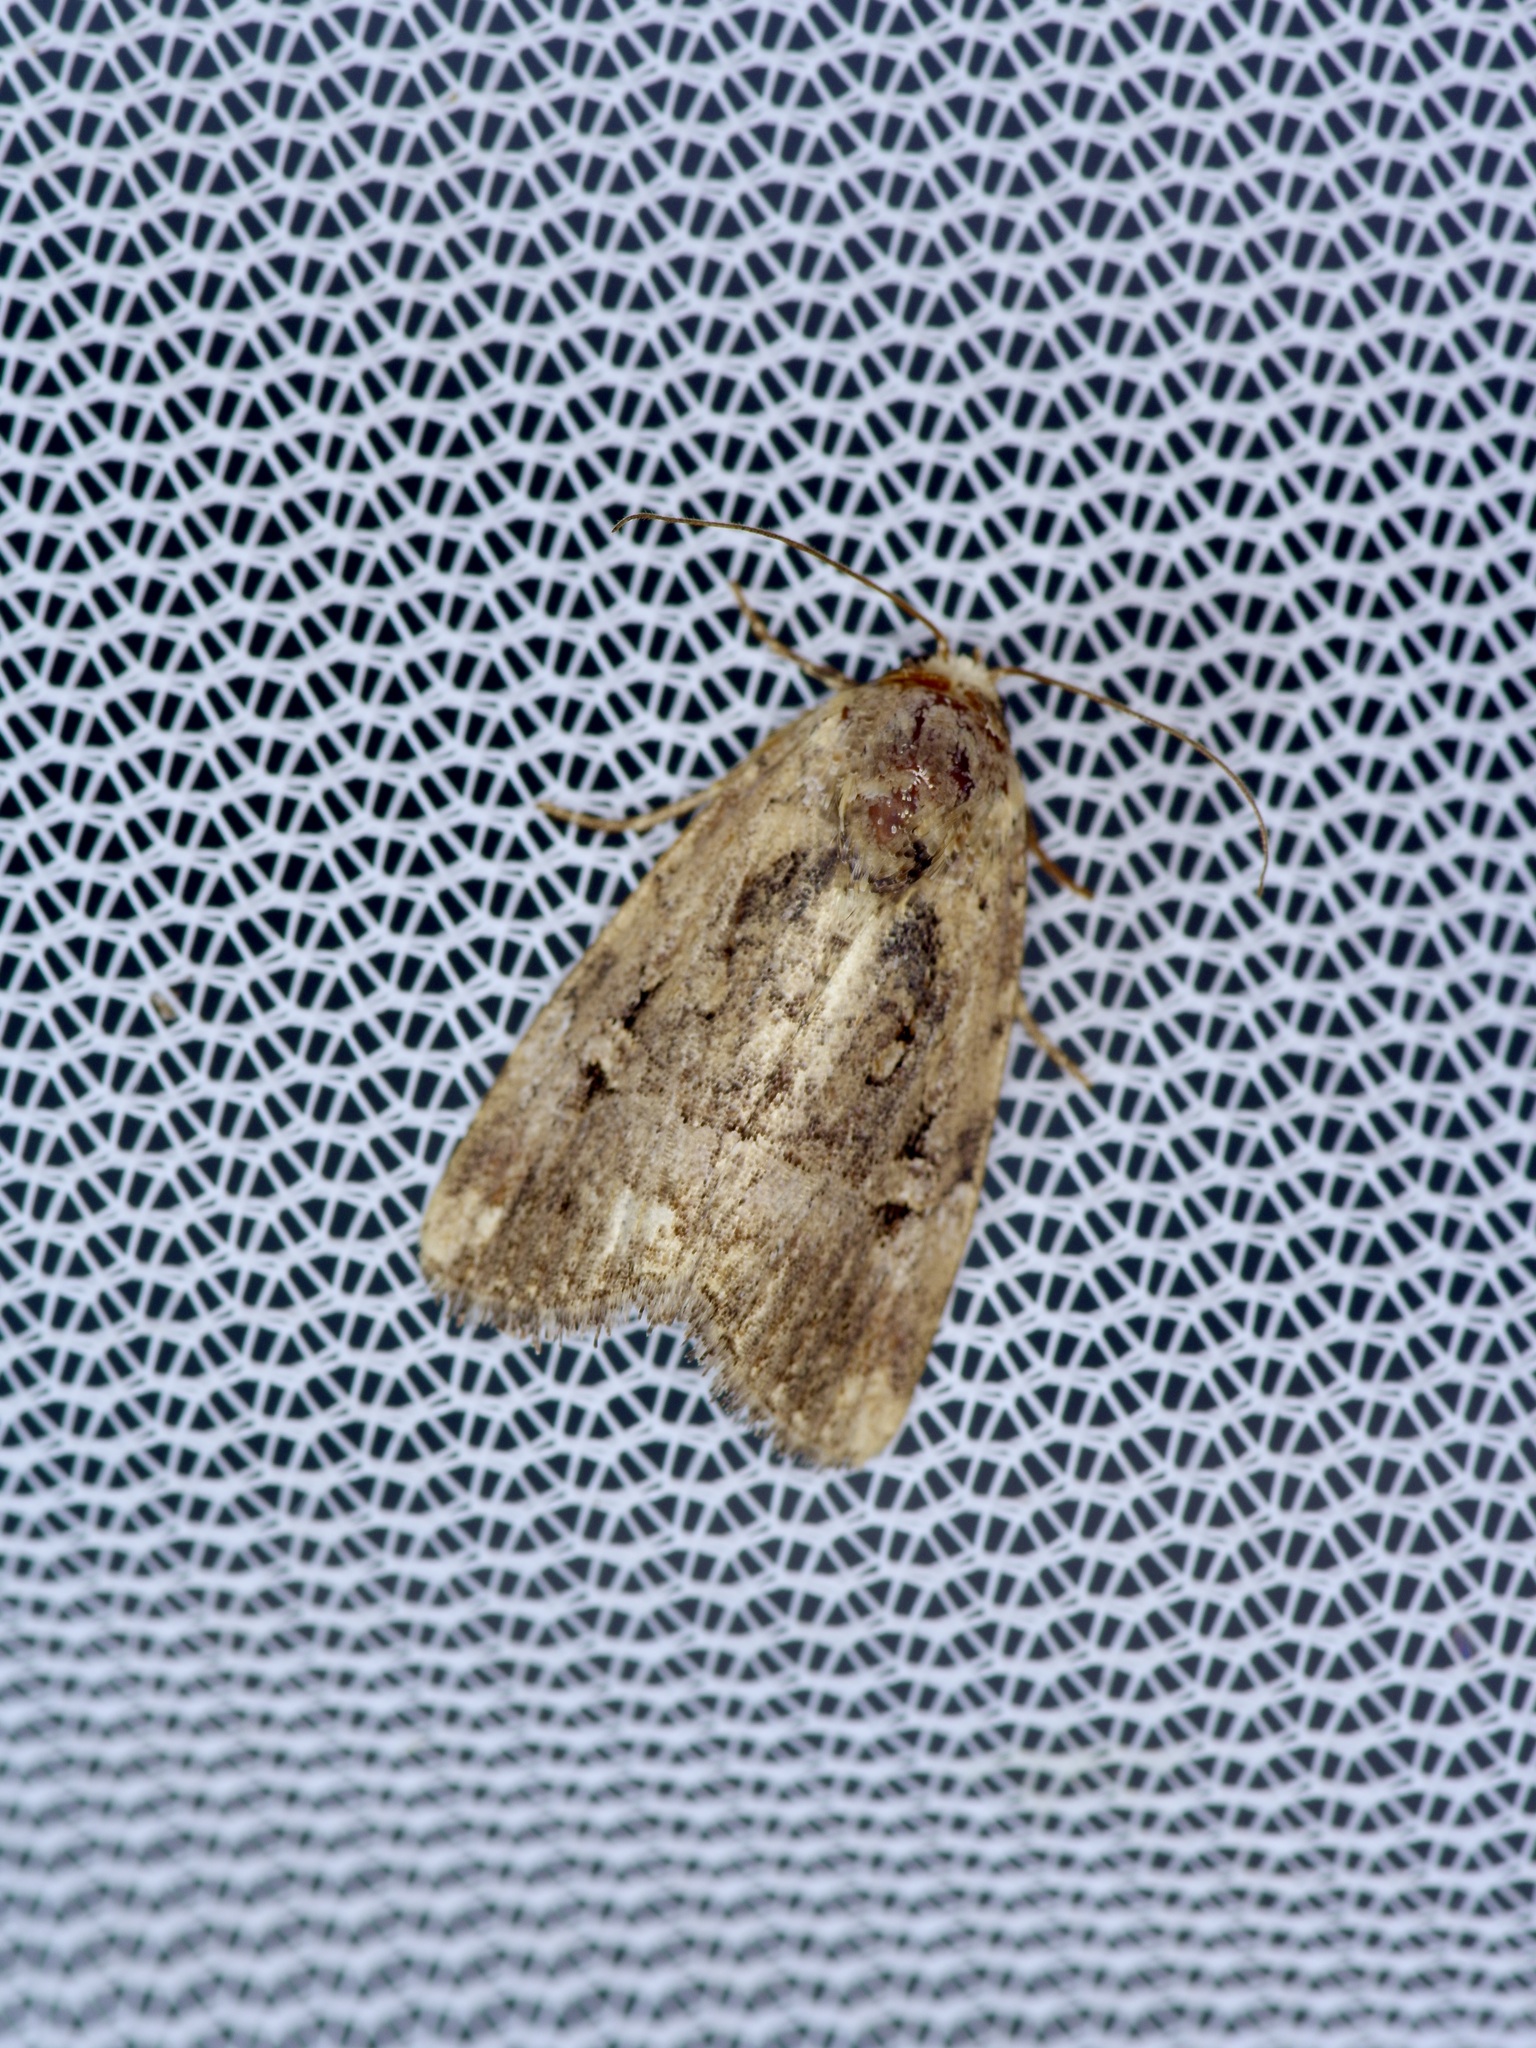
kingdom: Animalia
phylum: Arthropoda
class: Insecta
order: Lepidoptera
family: Noctuidae
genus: Elaphria
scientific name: Elaphria chalcedonia
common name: Chalcedony midget
